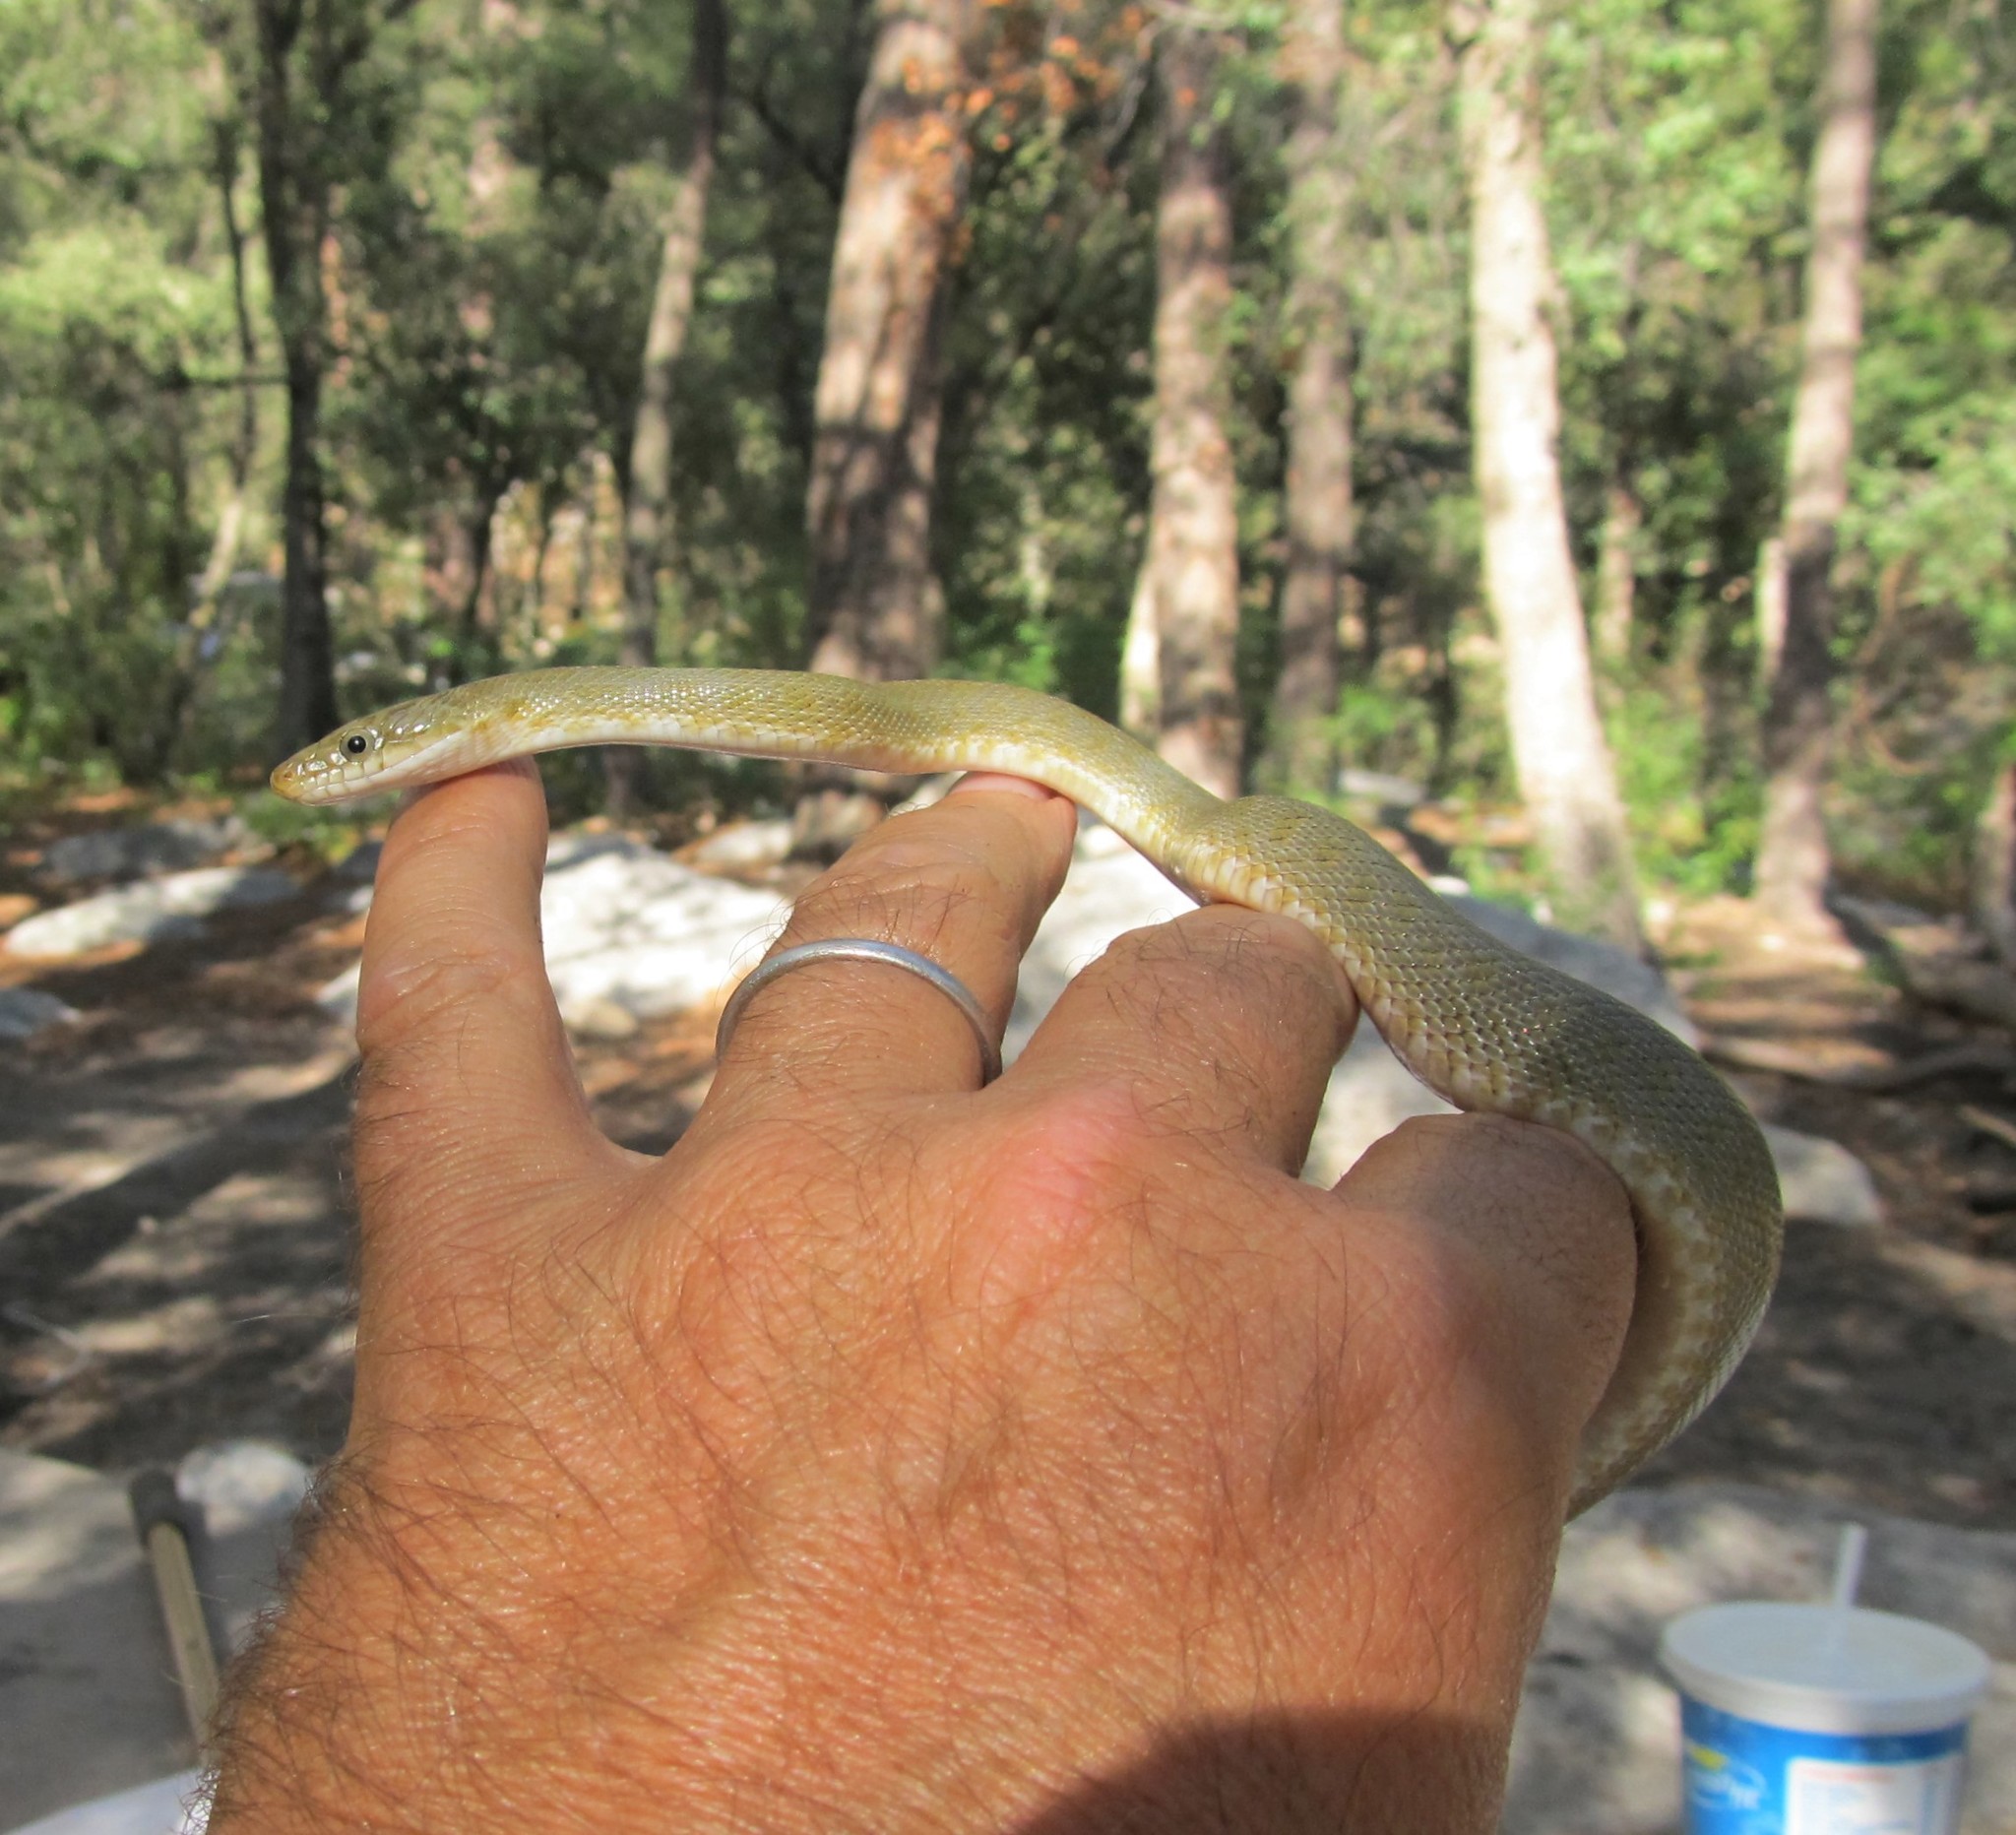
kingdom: Animalia
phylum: Chordata
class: Squamata
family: Colubridae
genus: Senticolis
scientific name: Senticolis triaspis
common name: Green rat snake
